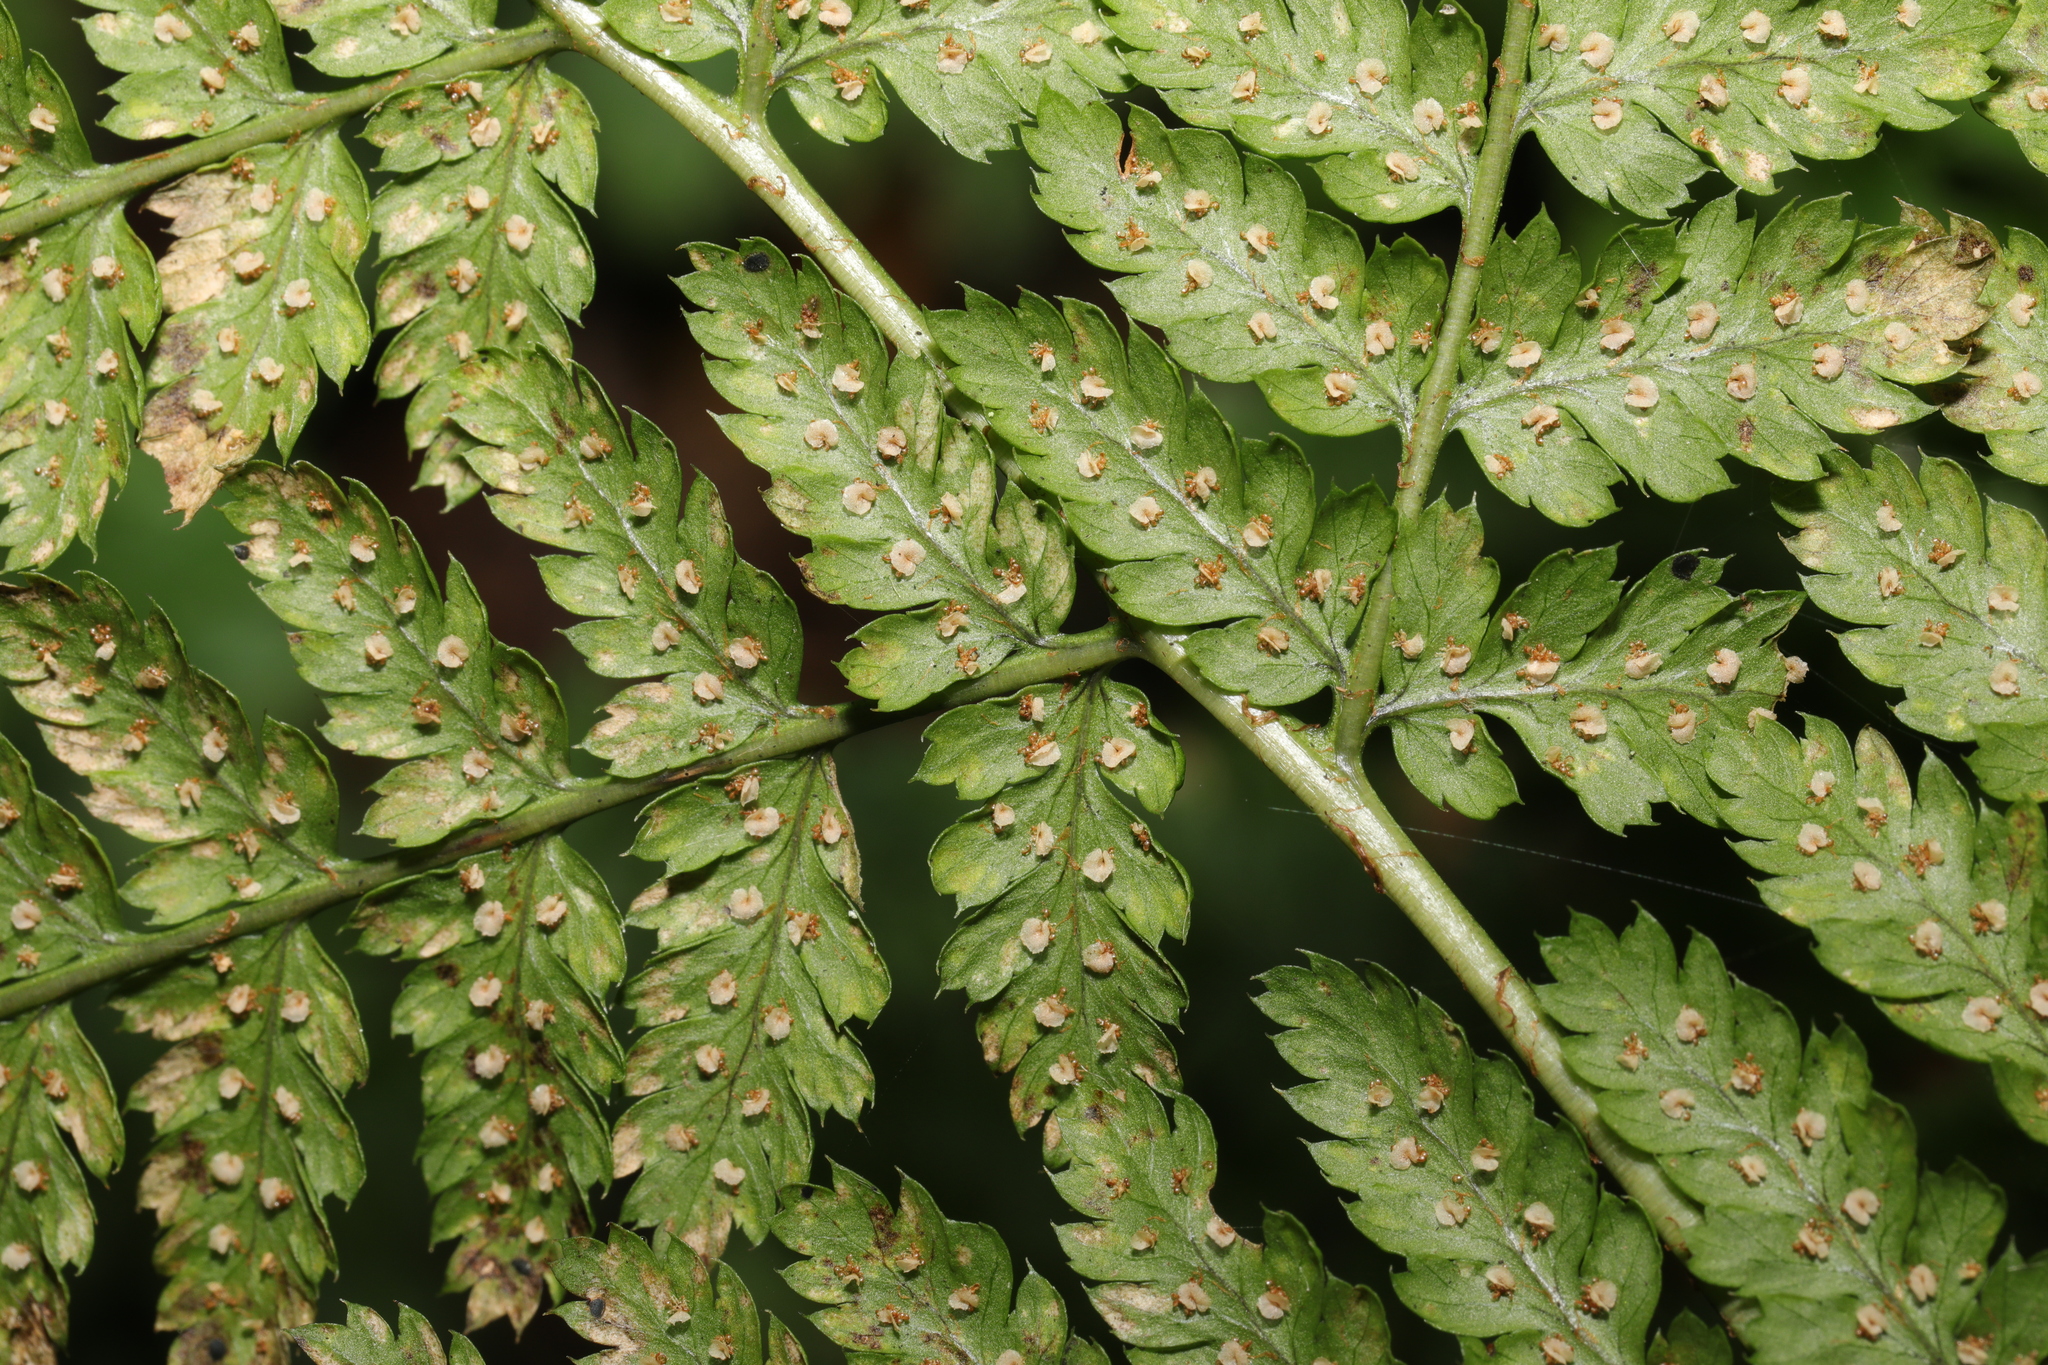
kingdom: Plantae
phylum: Tracheophyta
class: Polypodiopsida
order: Polypodiales
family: Dryopteridaceae
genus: Dryopteris
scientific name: Dryopteris dilatata
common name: Broad buckler-fern
